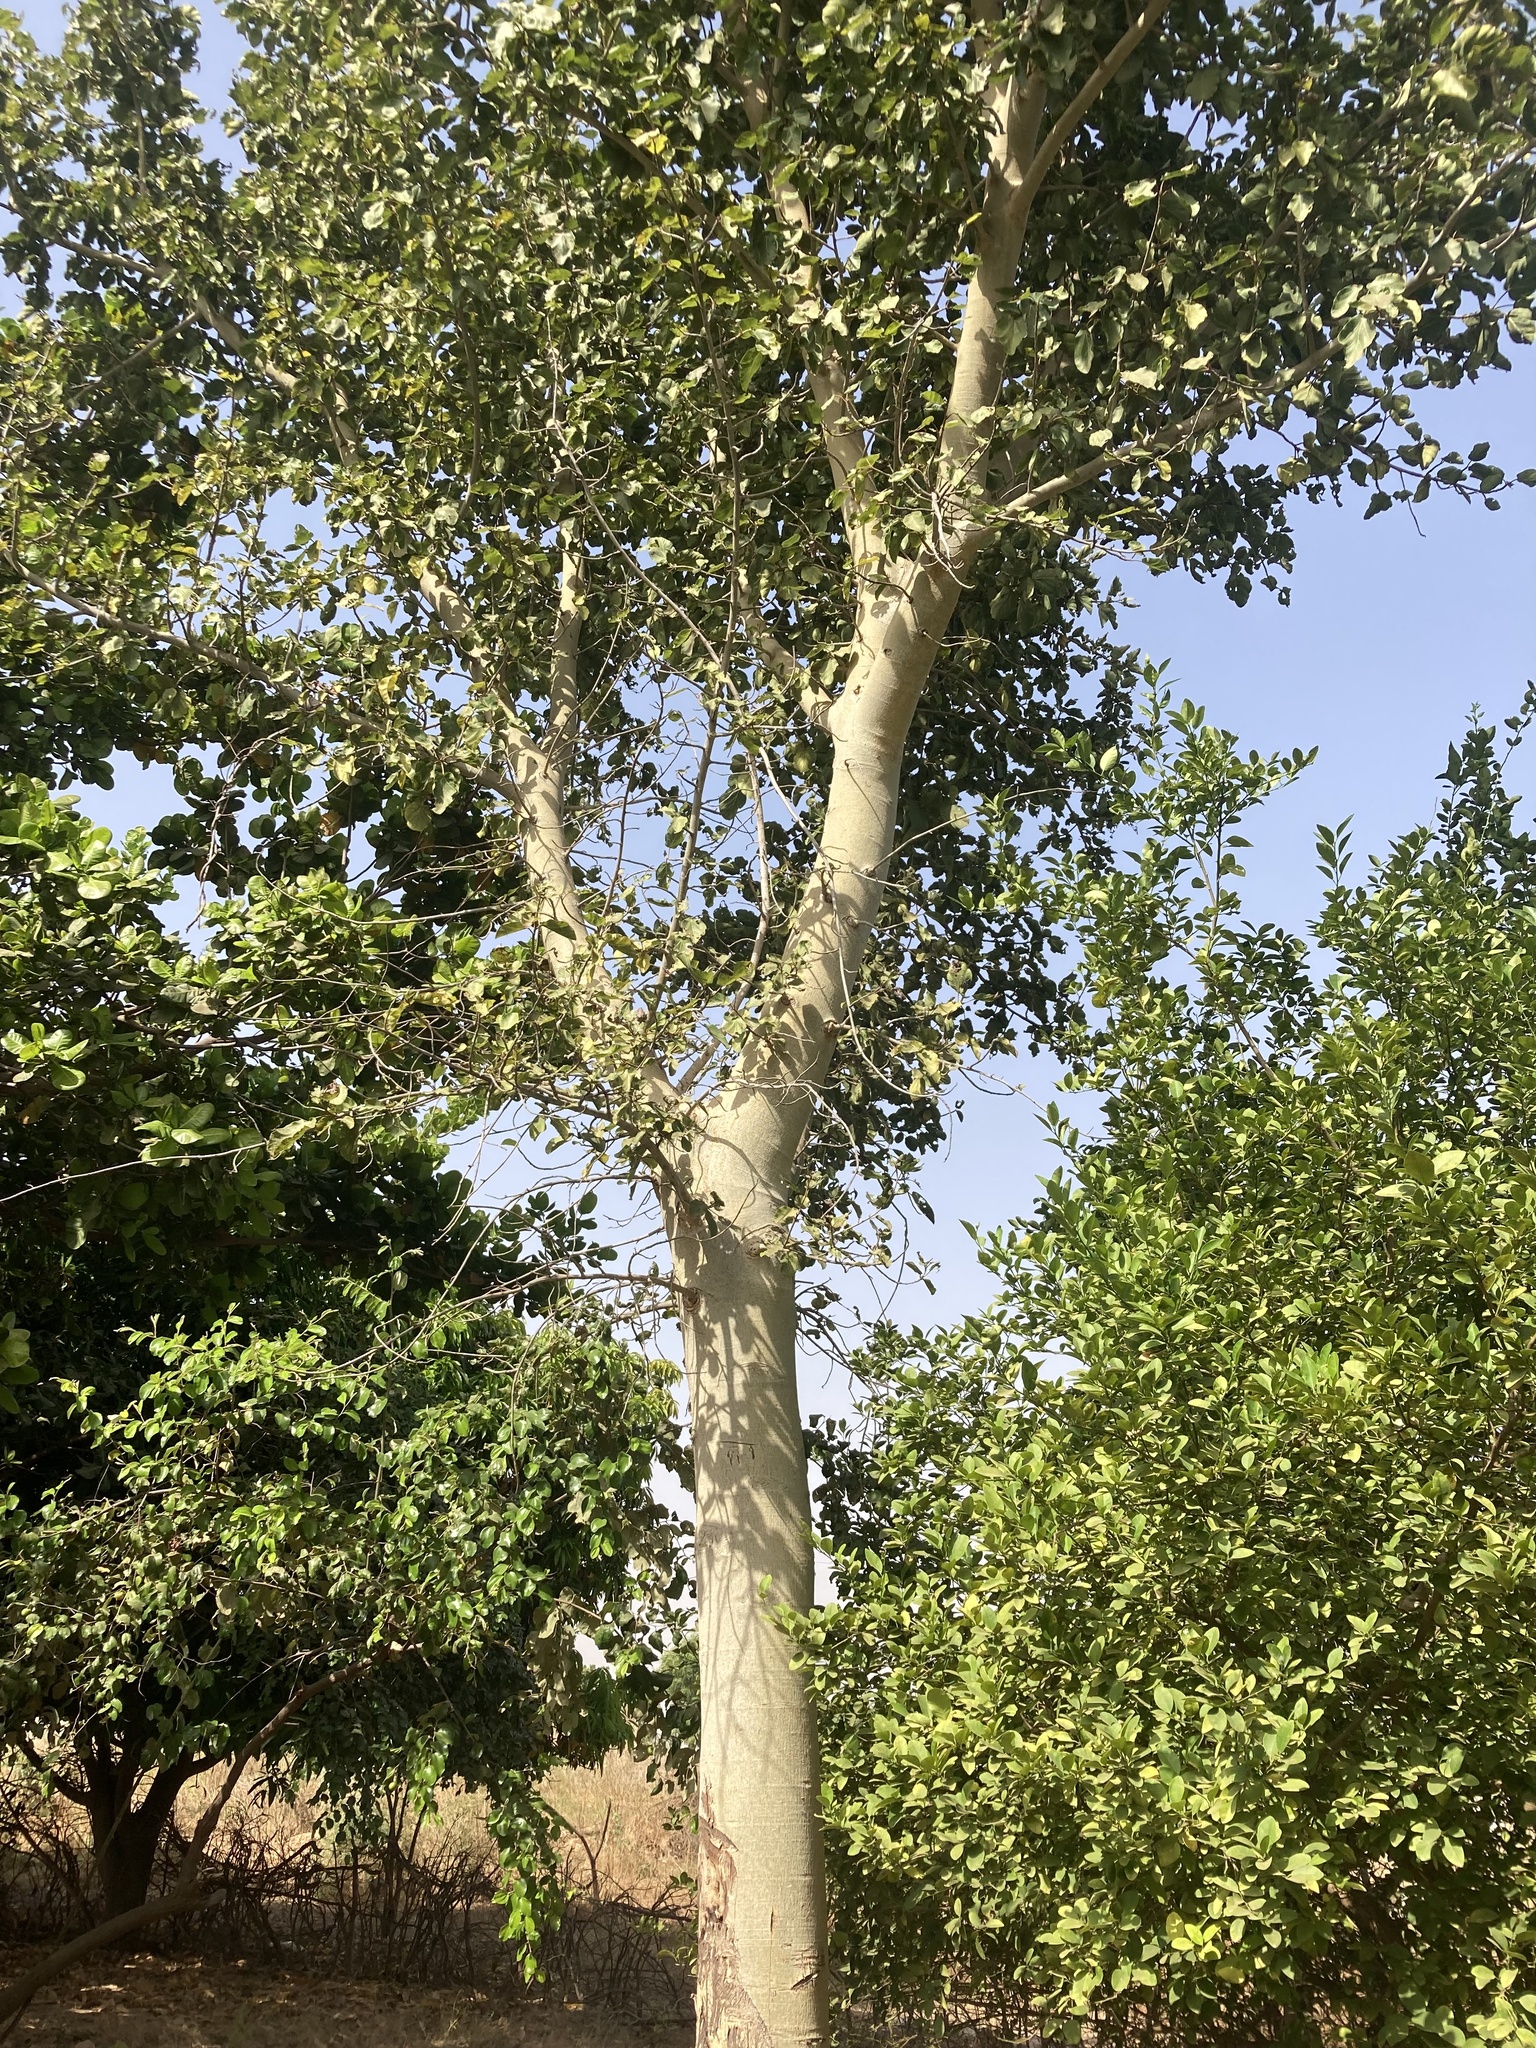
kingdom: Plantae
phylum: Tracheophyta
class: Magnoliopsida
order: Rosales
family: Moraceae
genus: Ficus
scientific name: Ficus sycomorus
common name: Sycomore
